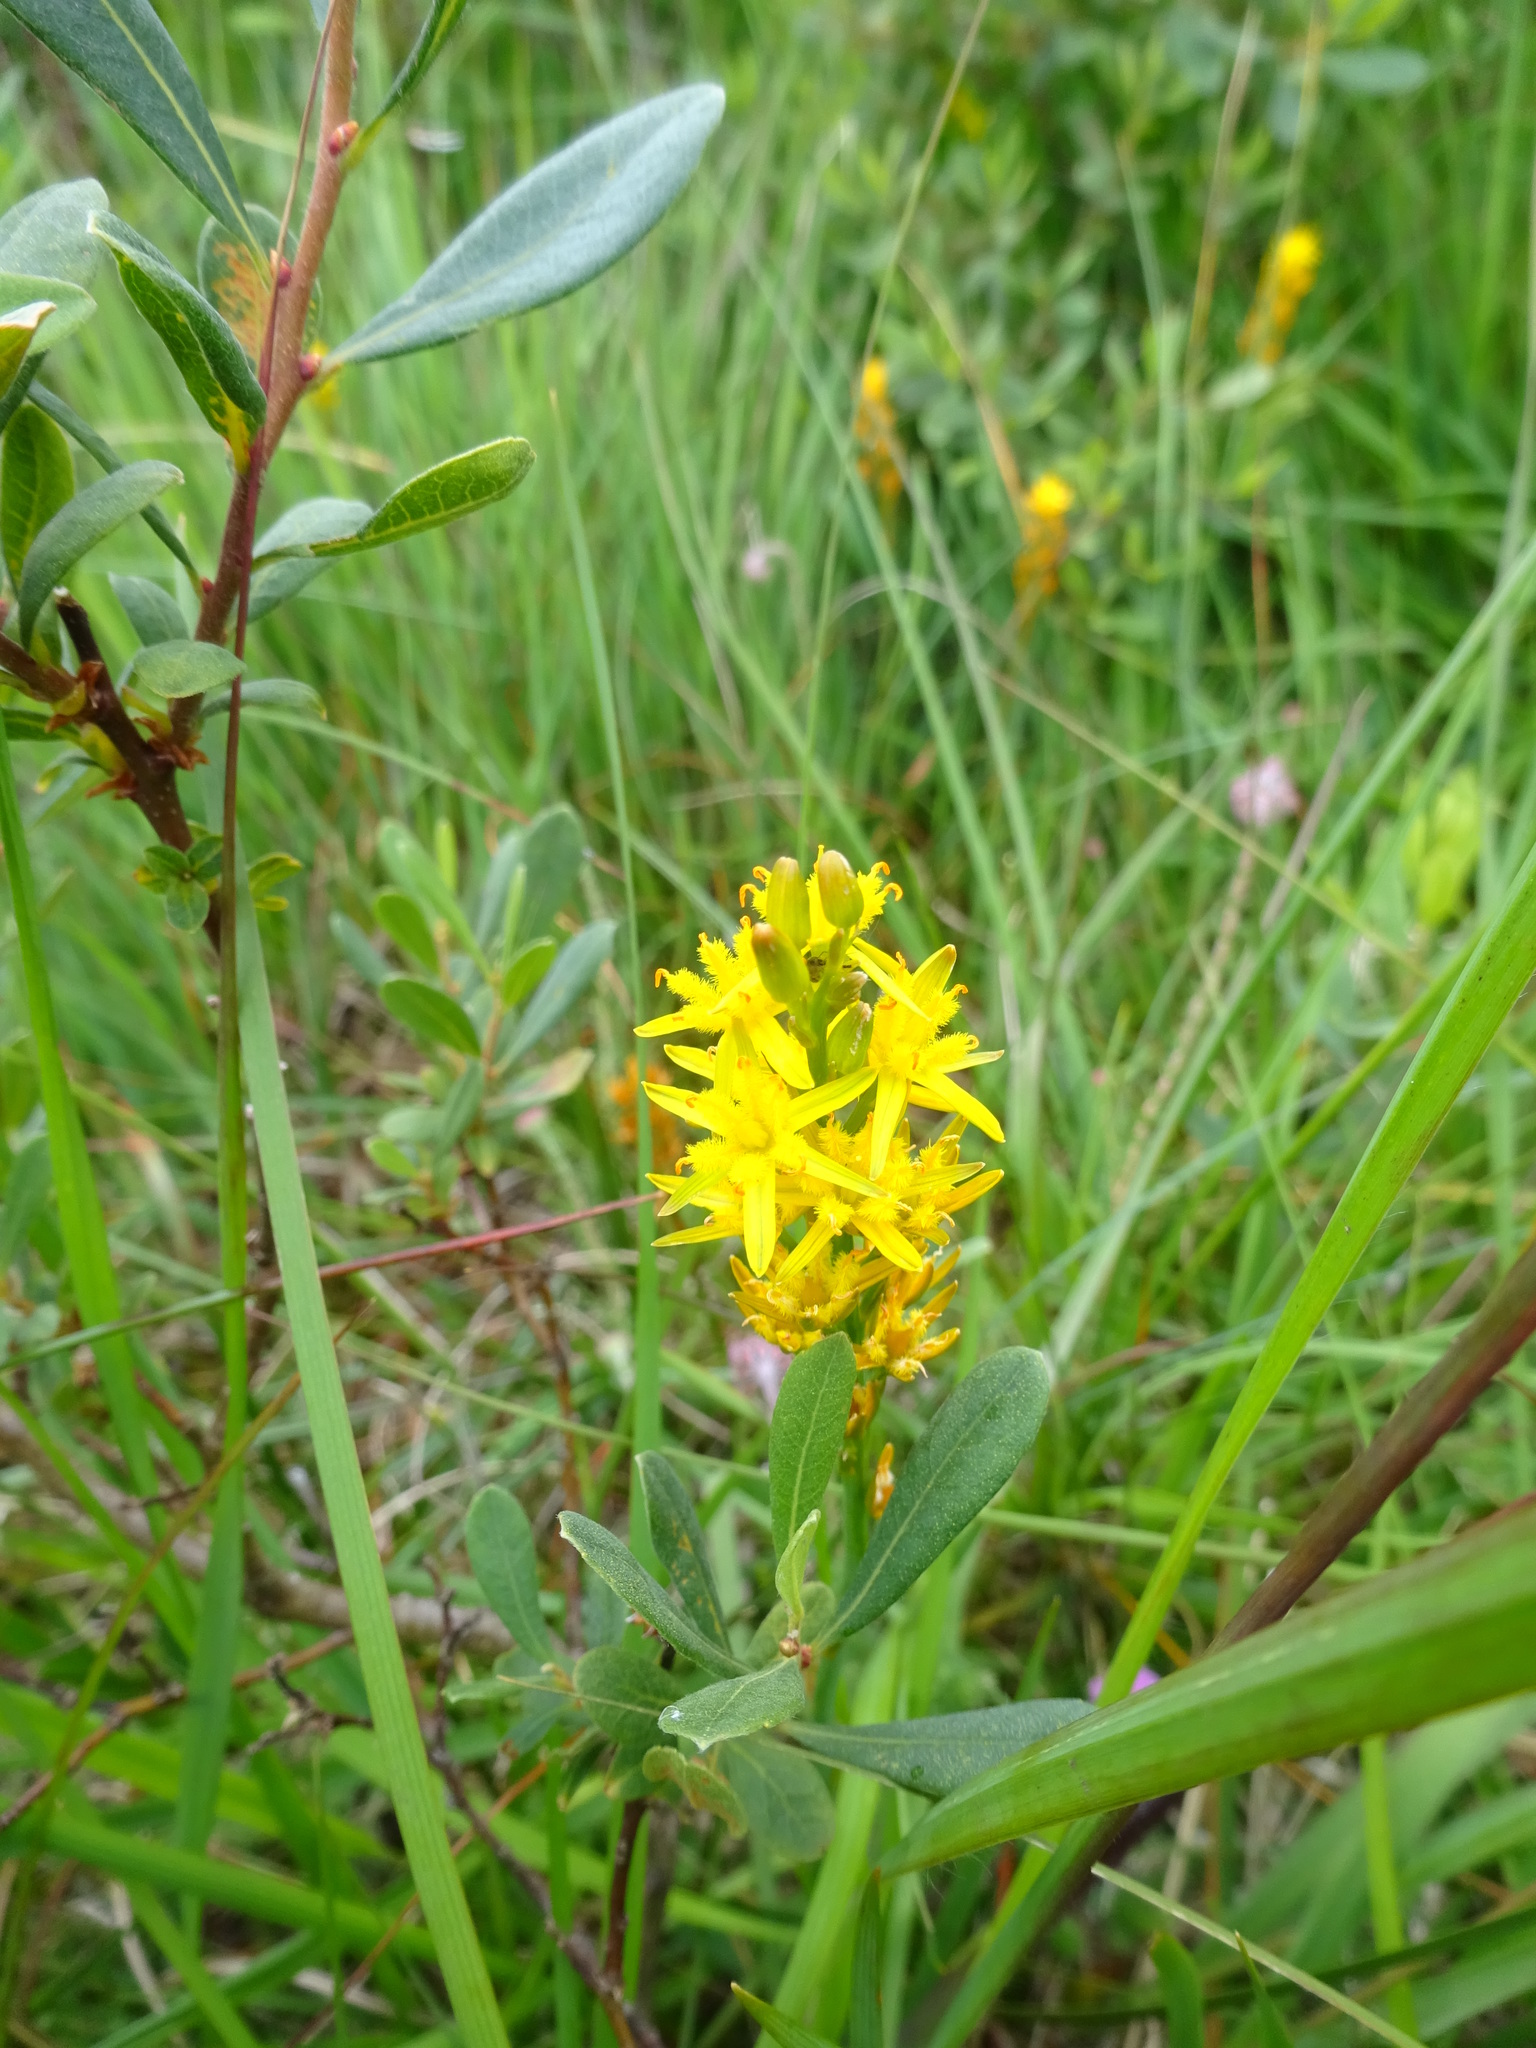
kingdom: Plantae
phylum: Tracheophyta
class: Liliopsida
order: Dioscoreales
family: Nartheciaceae
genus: Narthecium
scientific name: Narthecium ossifragum
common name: Bog asphodel
